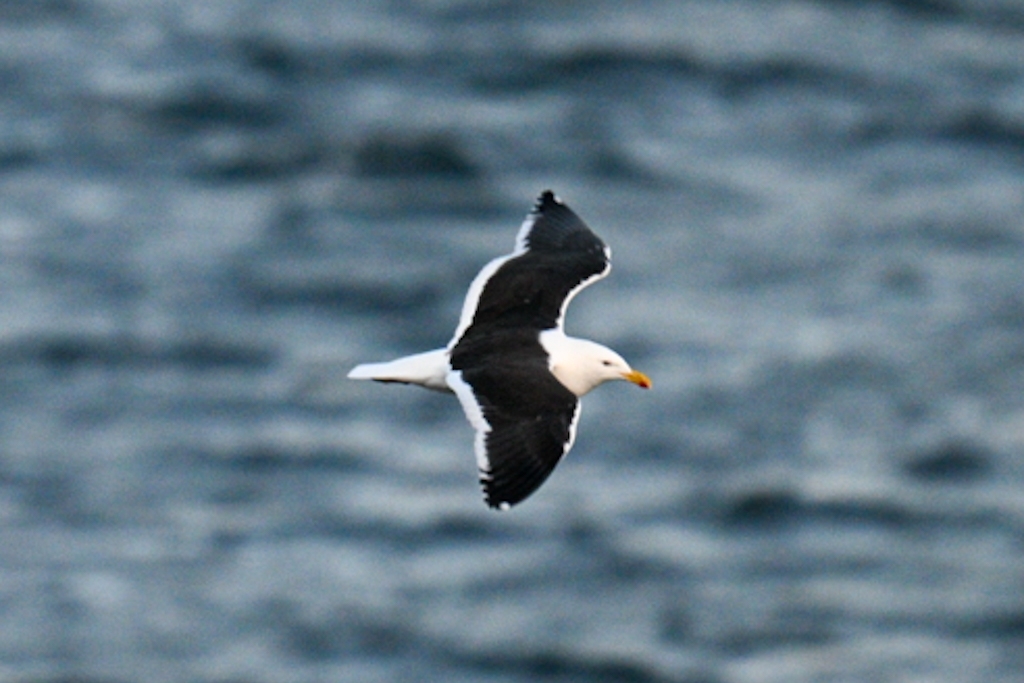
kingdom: Animalia
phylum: Chordata
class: Aves
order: Charadriiformes
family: Laridae
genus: Larus
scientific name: Larus dominicanus
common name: Kelp gull
